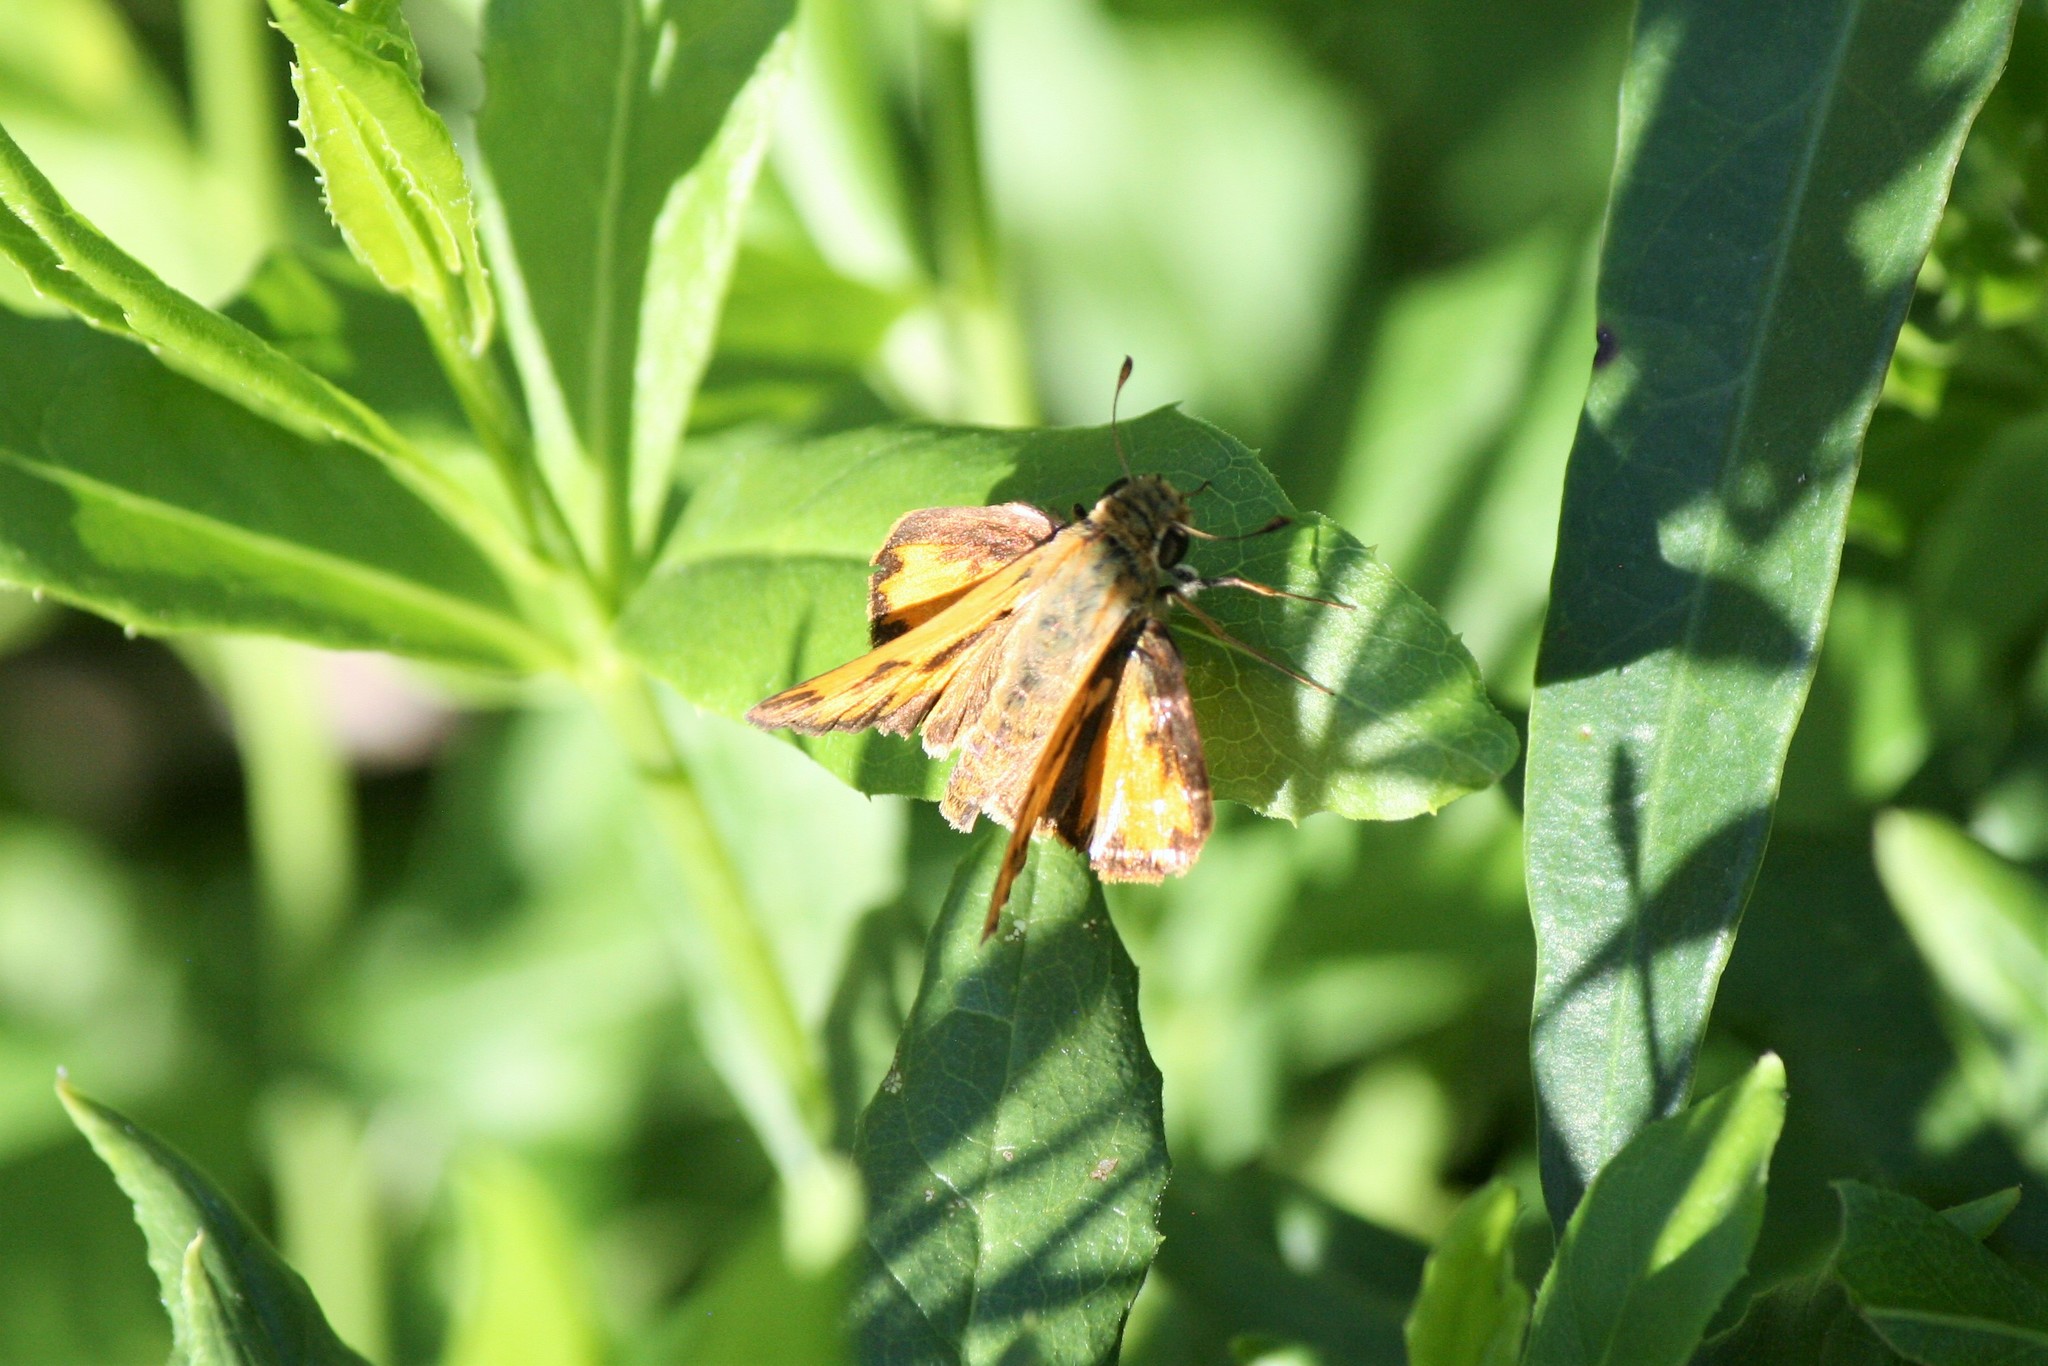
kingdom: Animalia
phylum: Arthropoda
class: Insecta
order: Lepidoptera
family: Hesperiidae
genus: Hylephila
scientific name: Hylephila phyleus
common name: Fiery skipper
